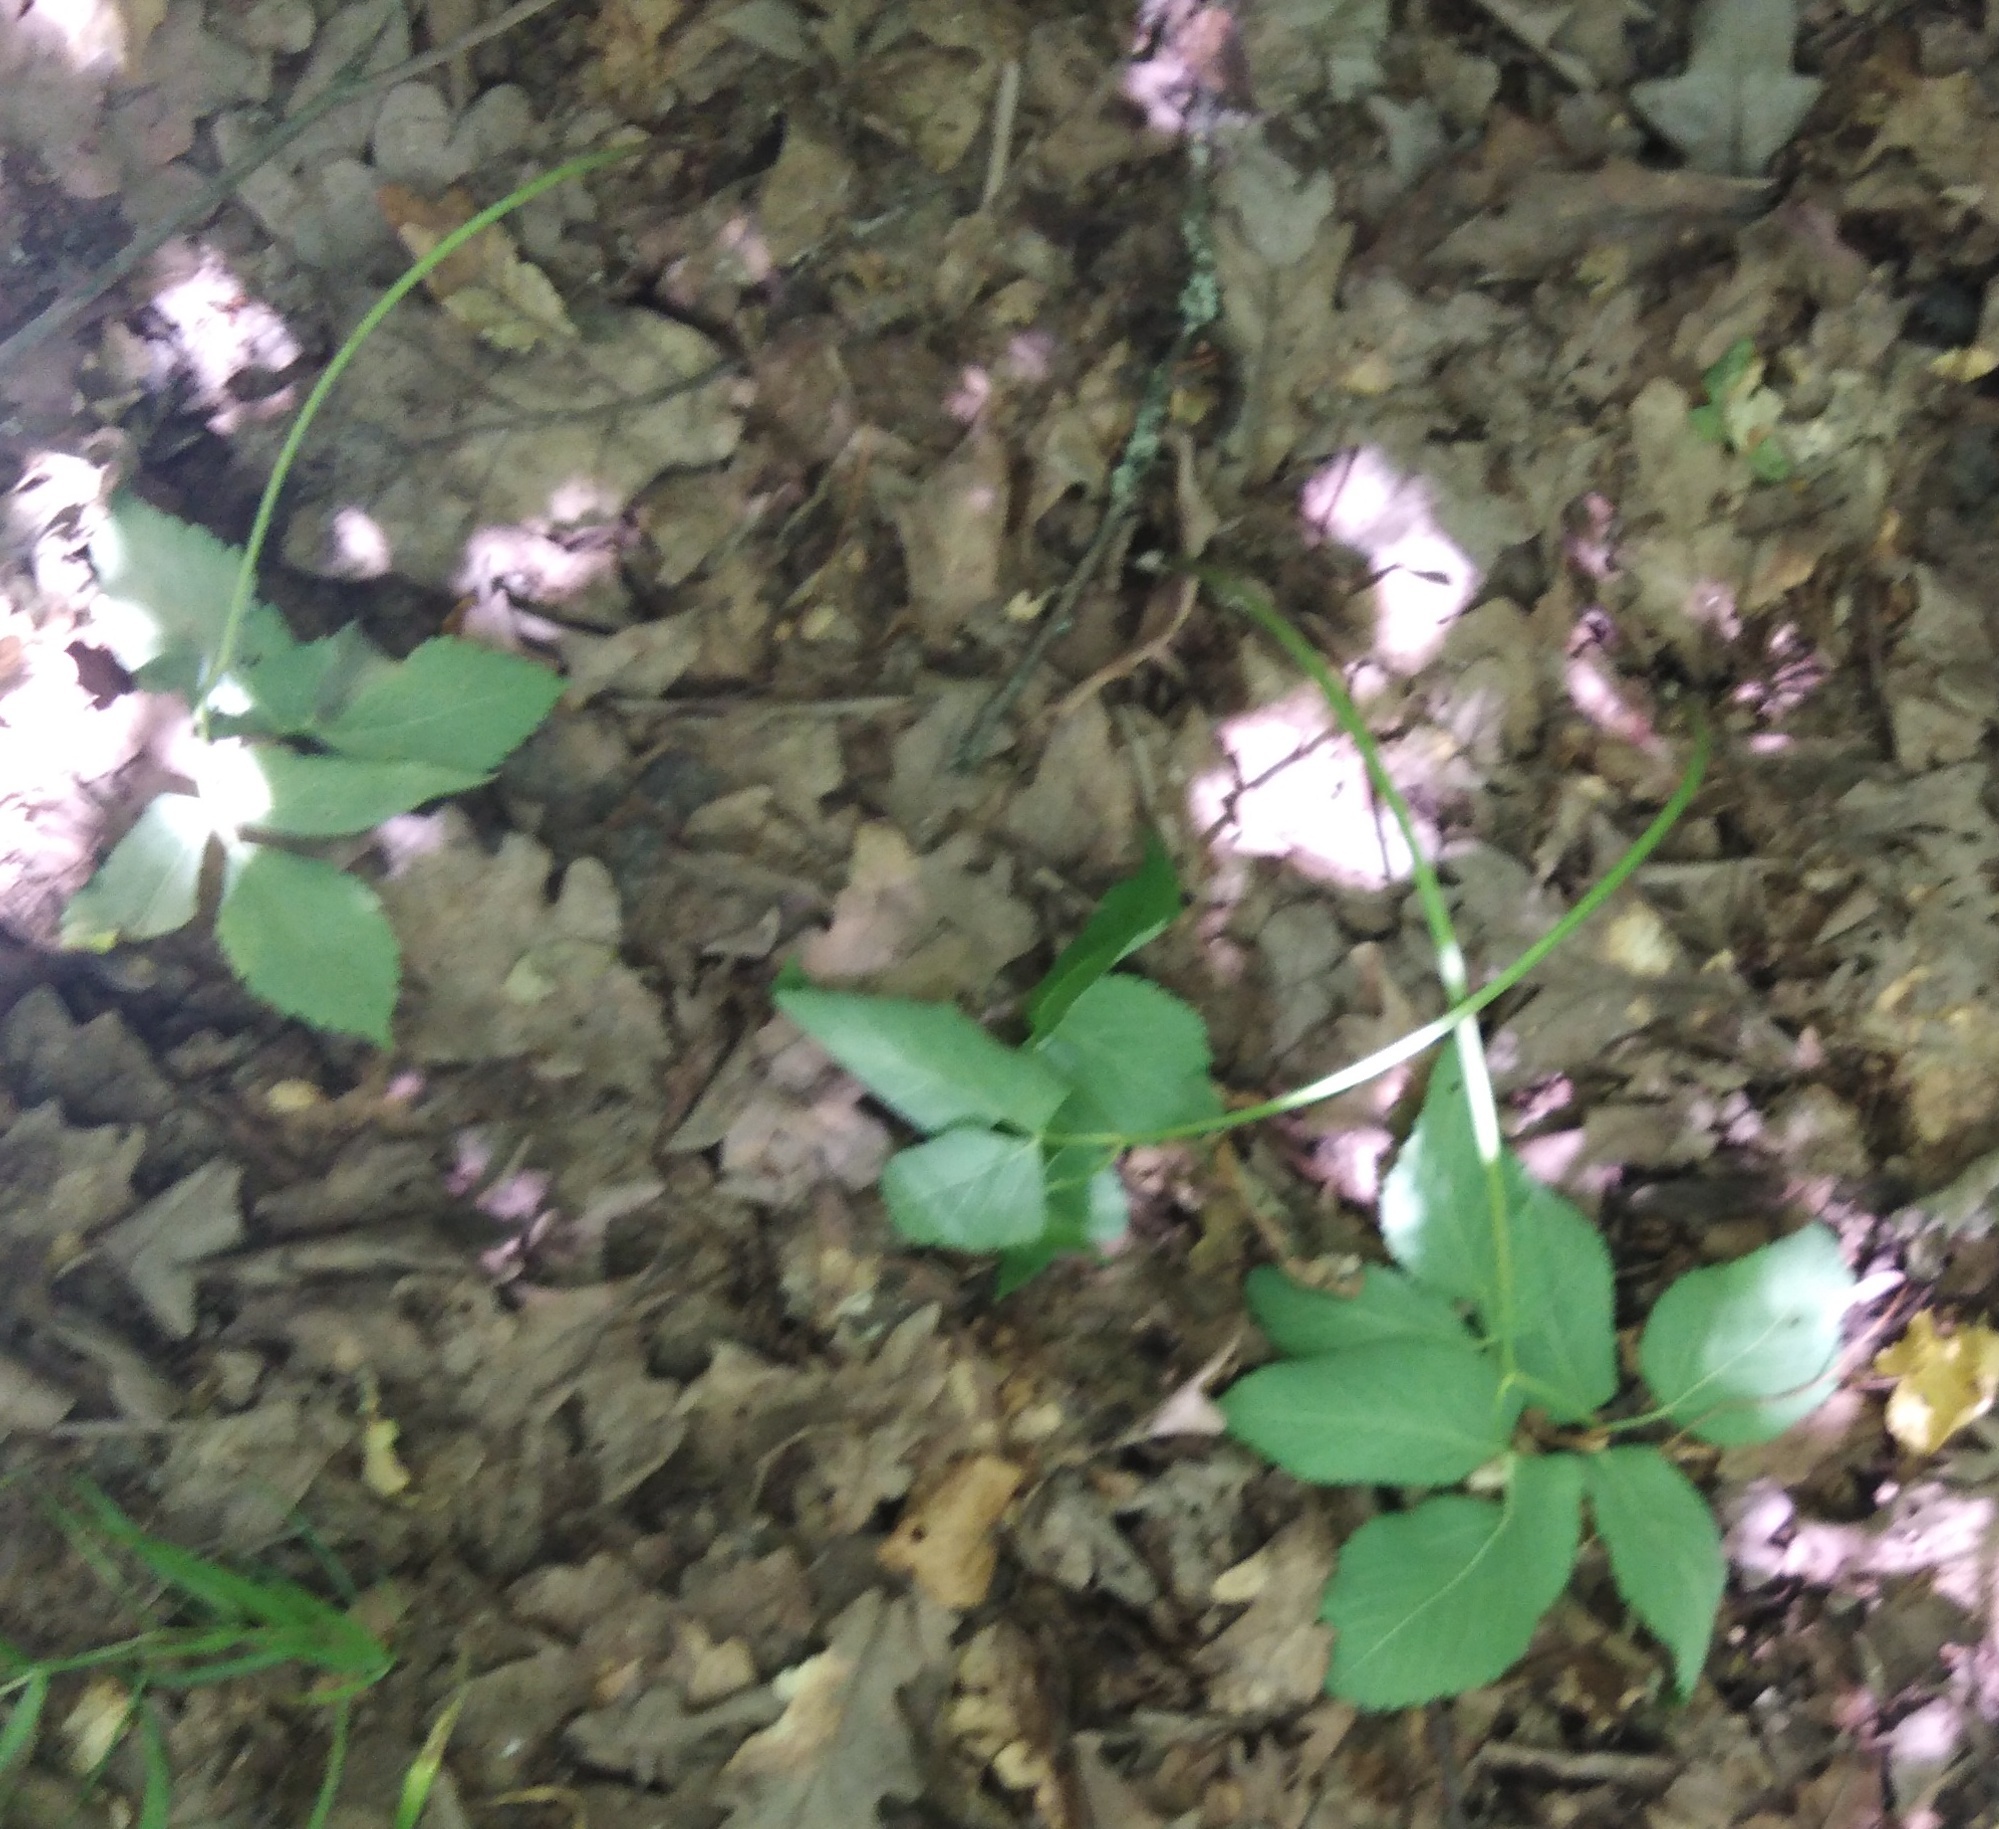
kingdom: Plantae
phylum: Tracheophyta
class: Magnoliopsida
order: Apiales
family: Apiaceae
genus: Aegopodium
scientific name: Aegopodium podagraria
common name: Ground-elder
